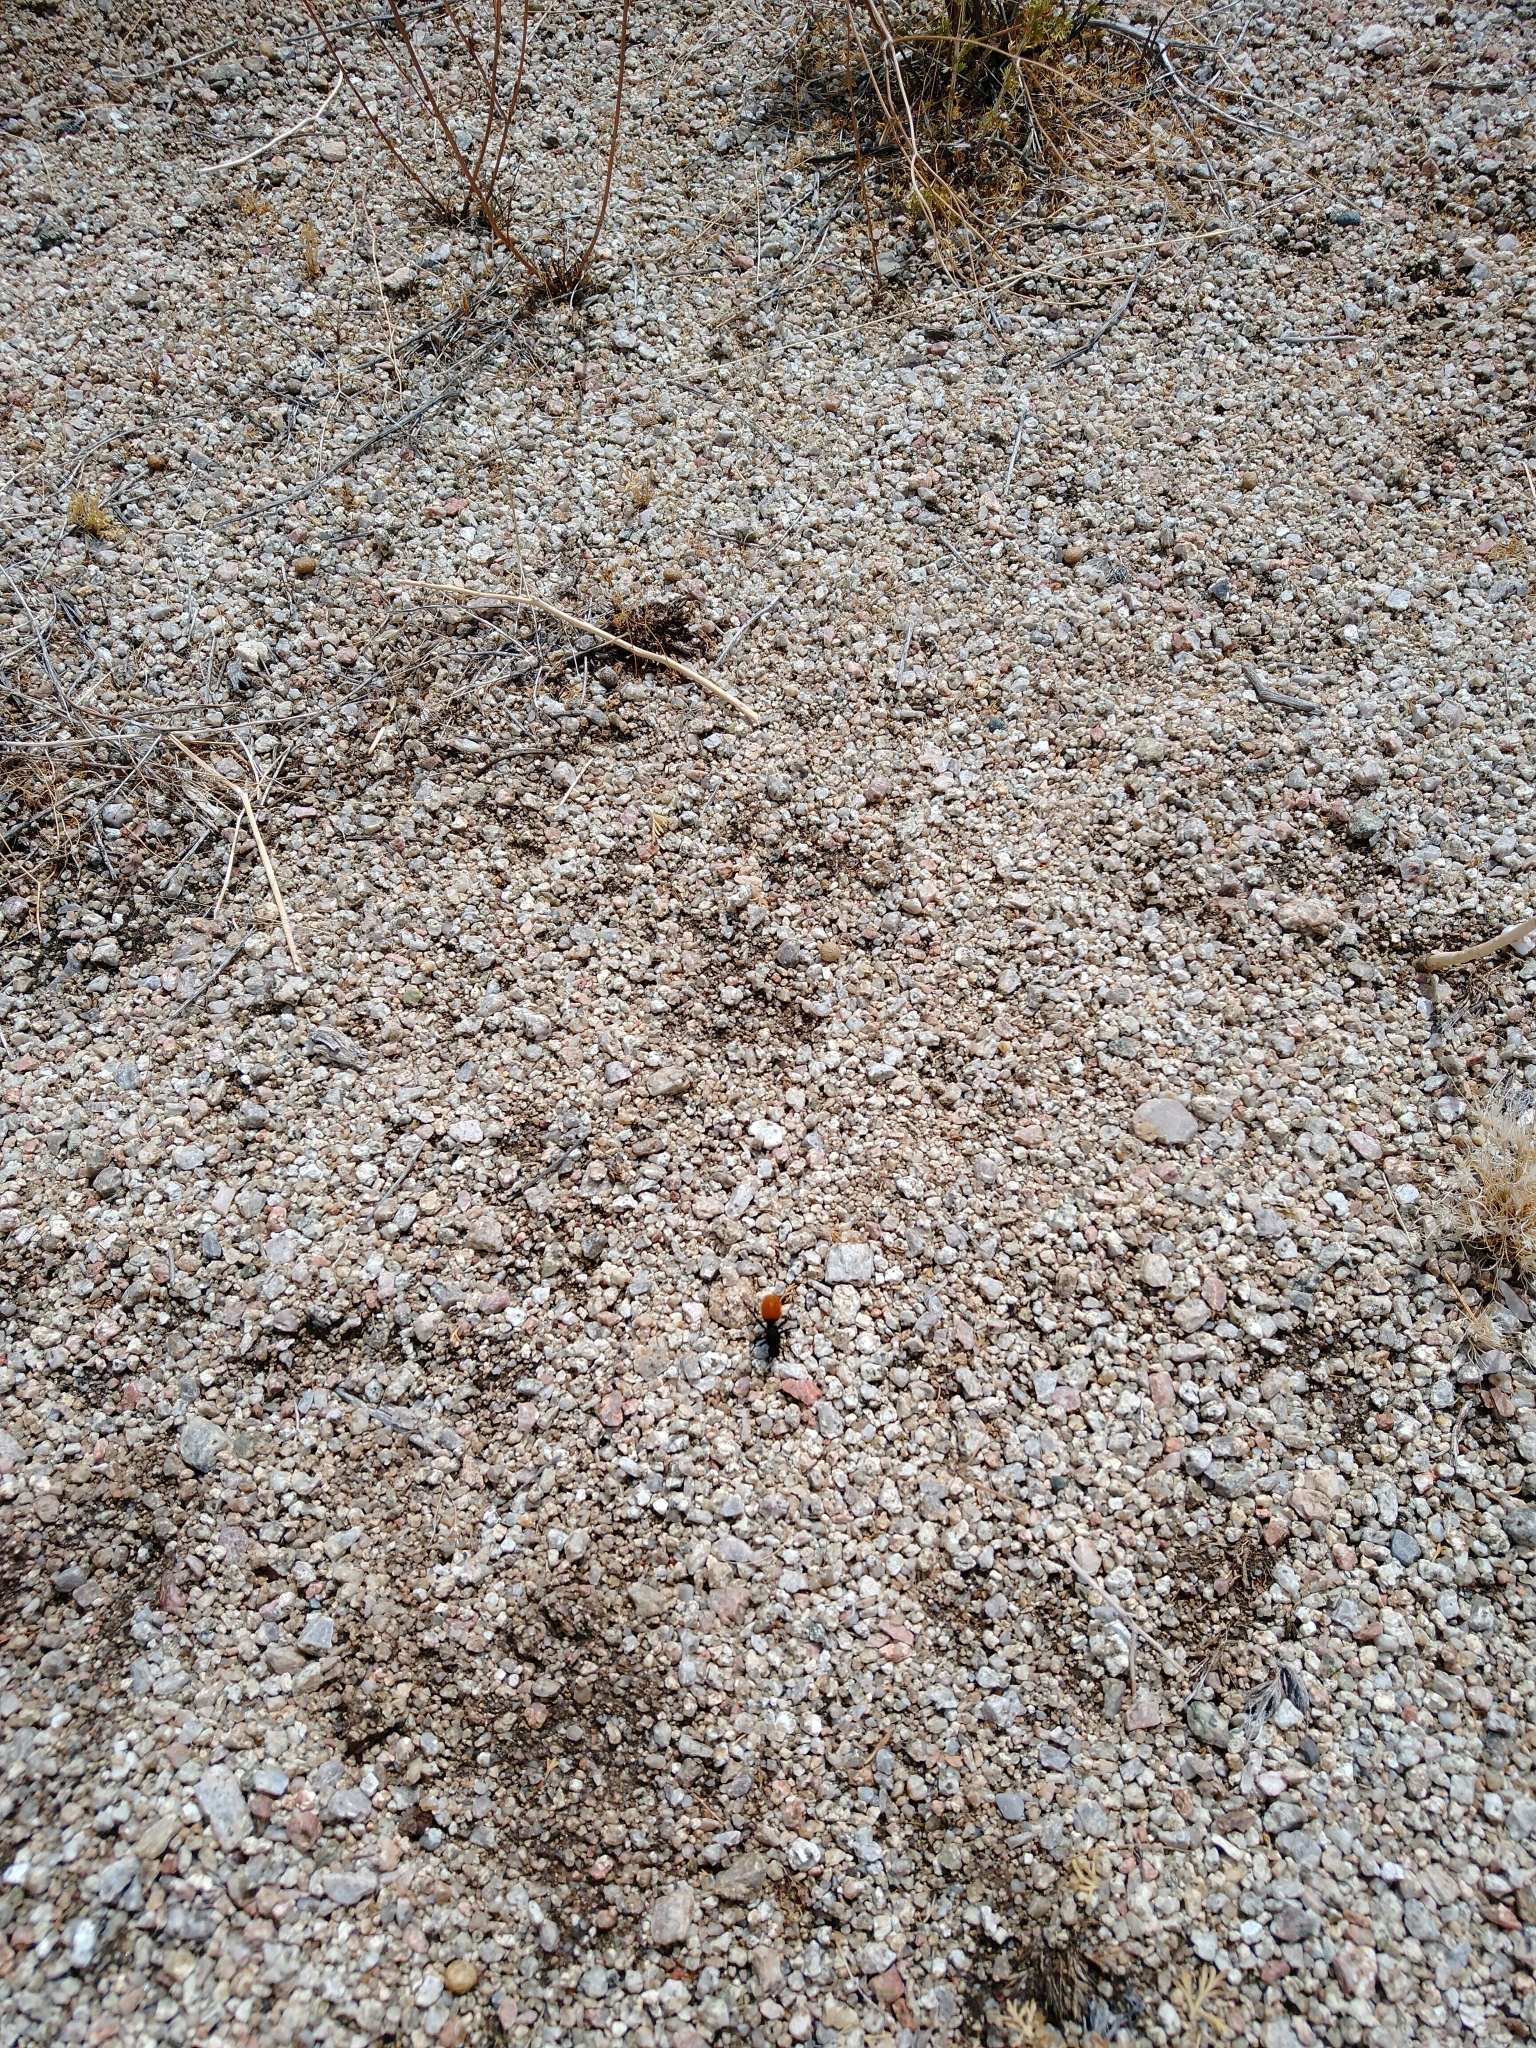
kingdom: Animalia
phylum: Arthropoda
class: Insecta
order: Hymenoptera
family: Mutillidae
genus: Dasymutilla
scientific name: Dasymutilla
